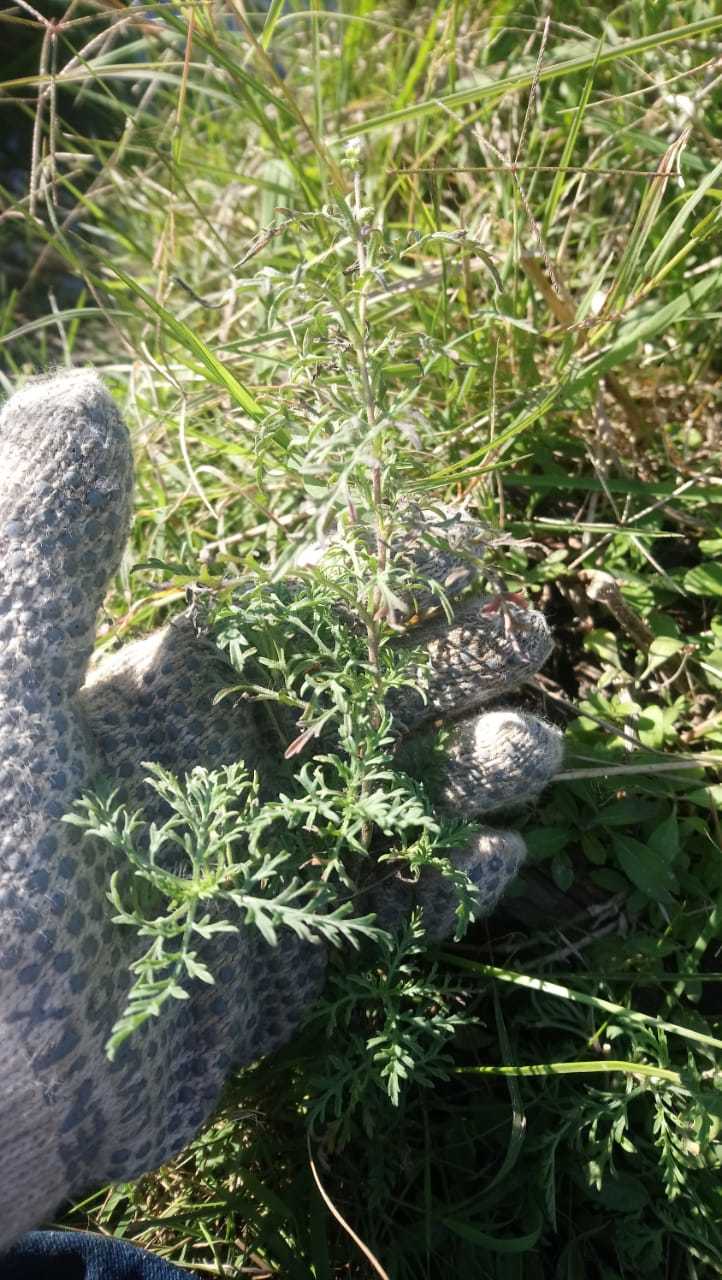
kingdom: Plantae
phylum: Tracheophyta
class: Magnoliopsida
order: Asterales
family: Asteraceae
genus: Ambrosia
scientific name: Ambrosia tenuifolia
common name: Lacy ambrosia
